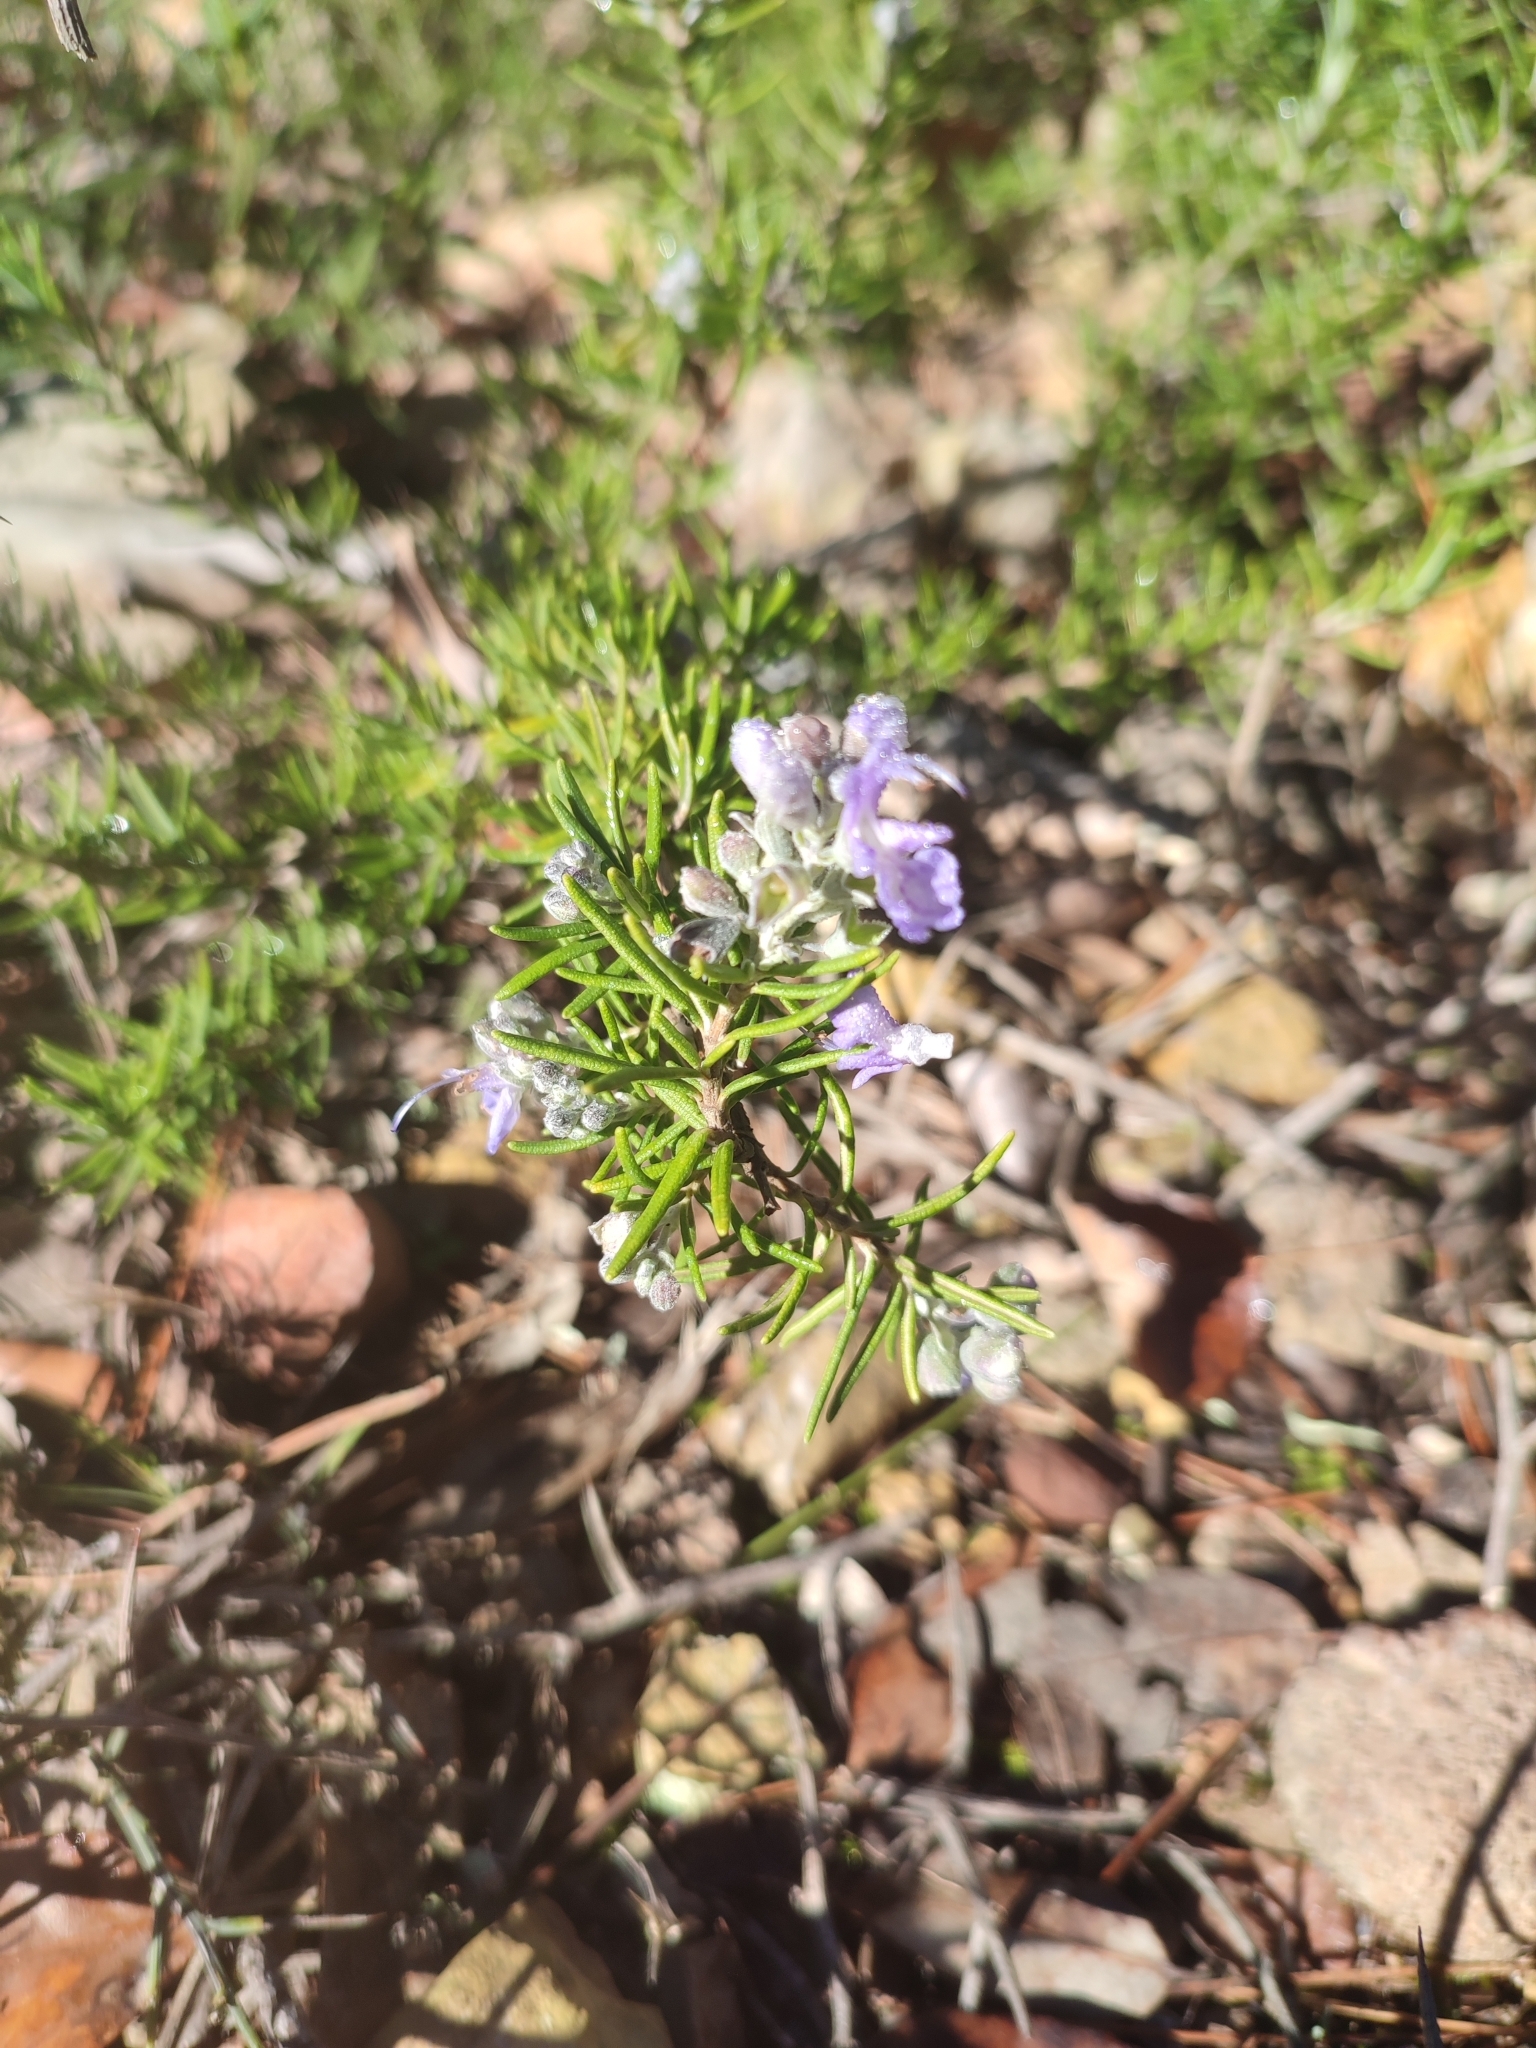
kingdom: Plantae
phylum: Tracheophyta
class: Magnoliopsida
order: Lamiales
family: Lamiaceae
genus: Salvia
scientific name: Salvia rosmarinus
